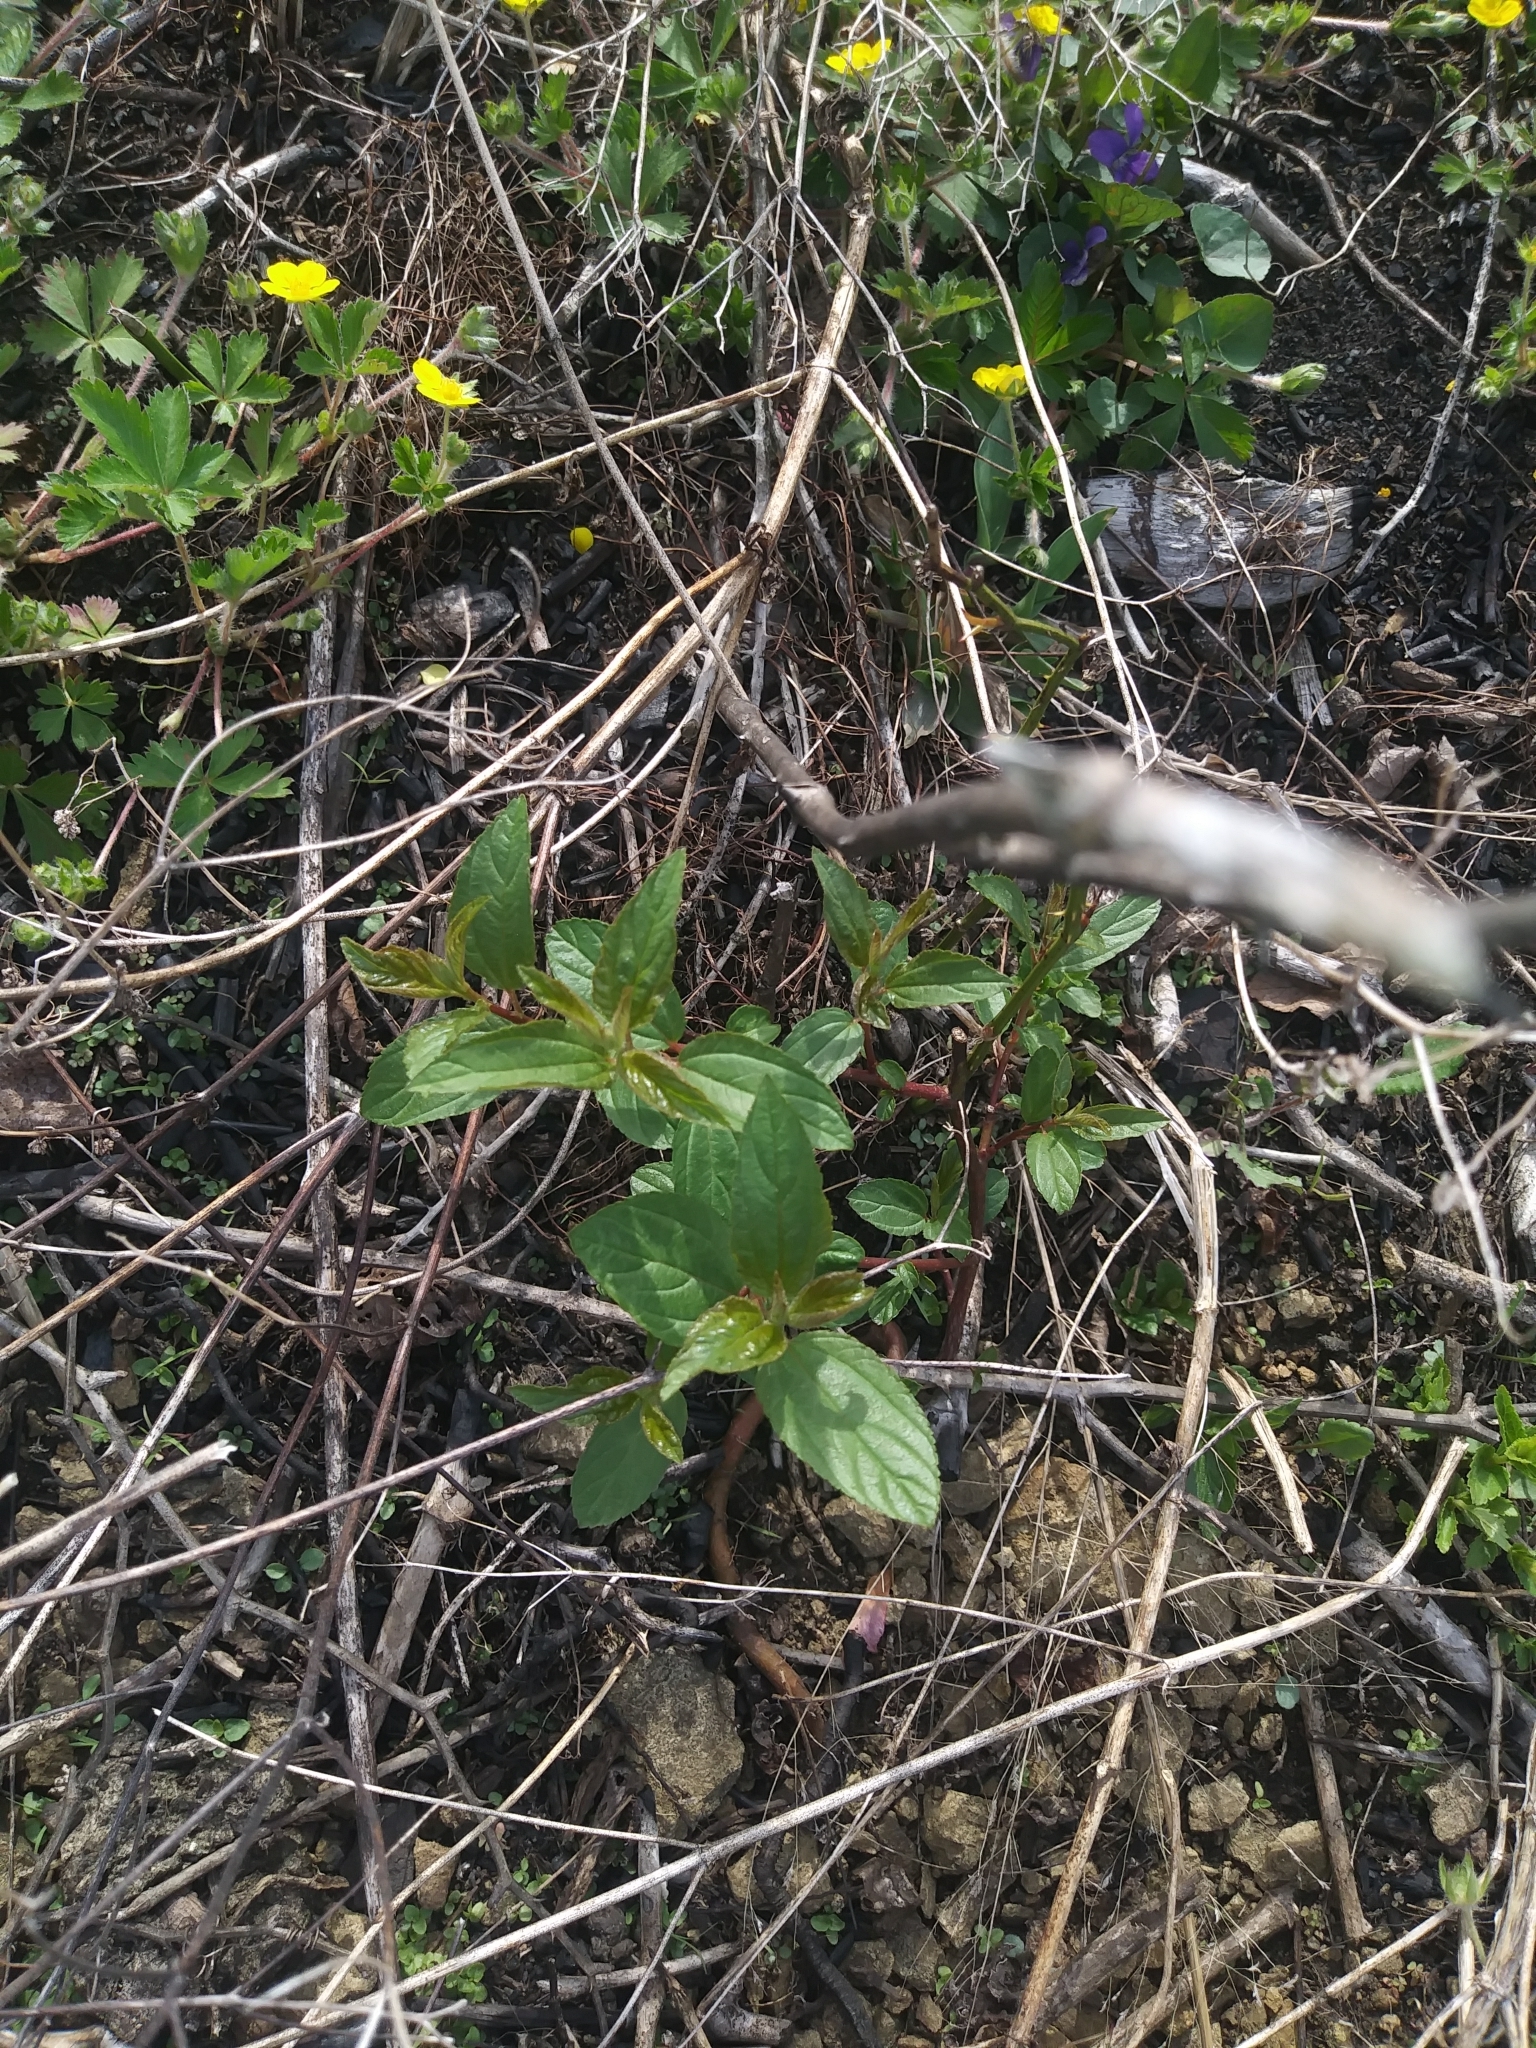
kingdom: Plantae
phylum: Tracheophyta
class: Magnoliopsida
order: Rosales
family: Rhamnaceae
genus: Ceanothus
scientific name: Ceanothus americanus
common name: Redroot
